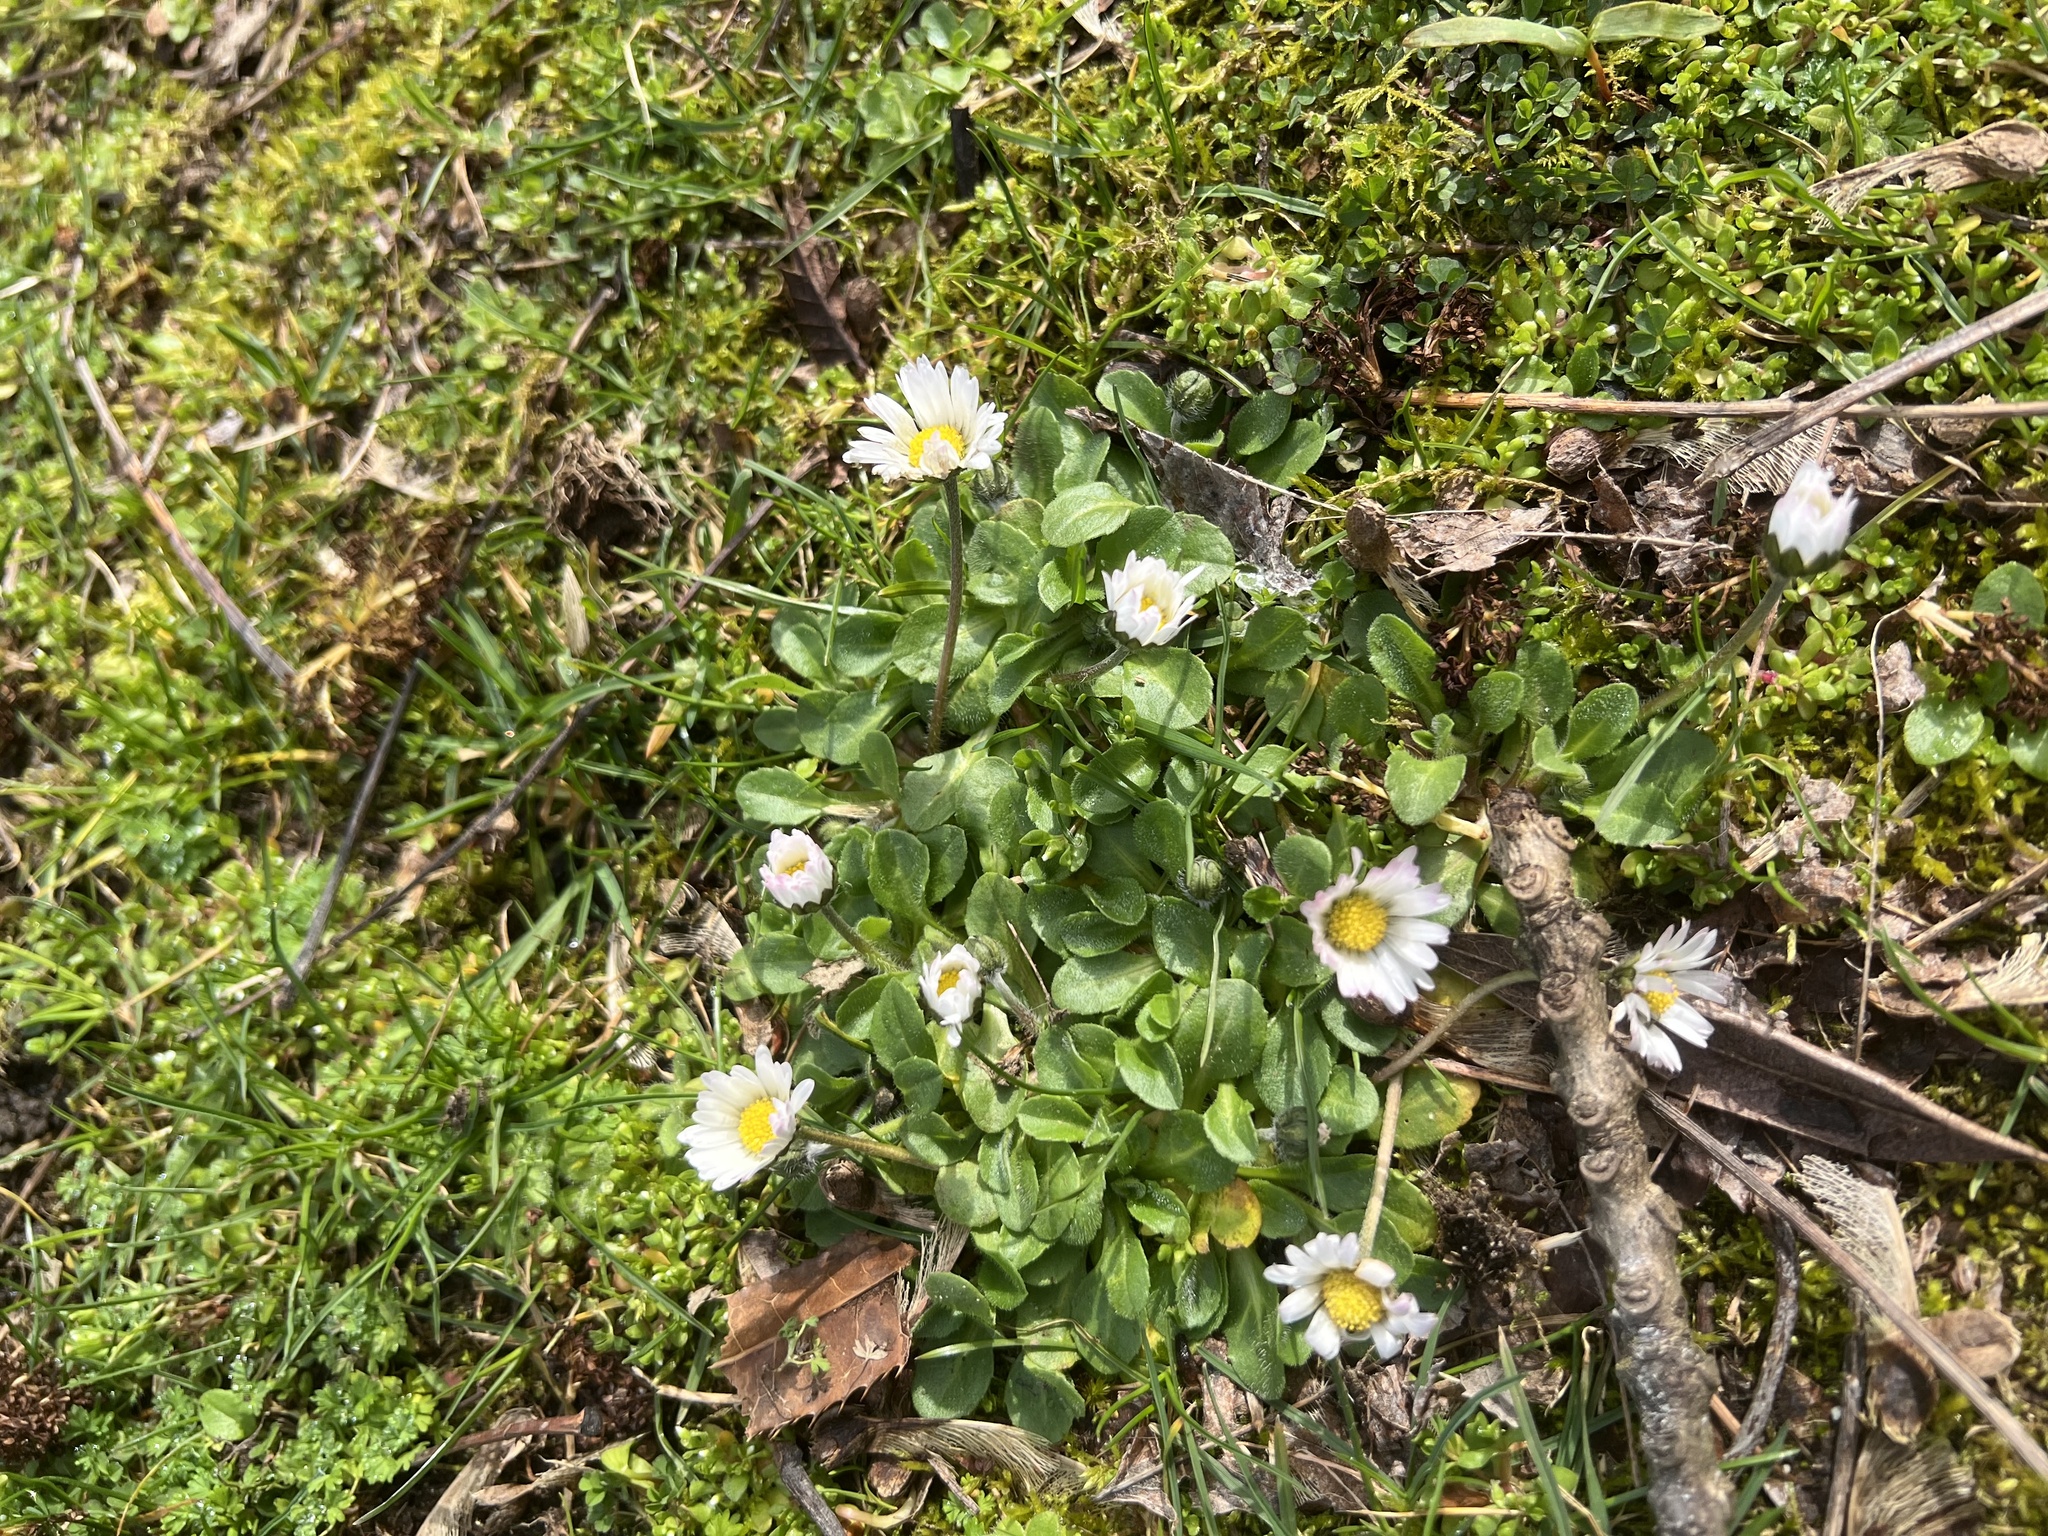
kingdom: Plantae
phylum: Tracheophyta
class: Magnoliopsida
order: Asterales
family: Asteraceae
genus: Bellis
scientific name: Bellis perennis
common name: Lawndaisy
